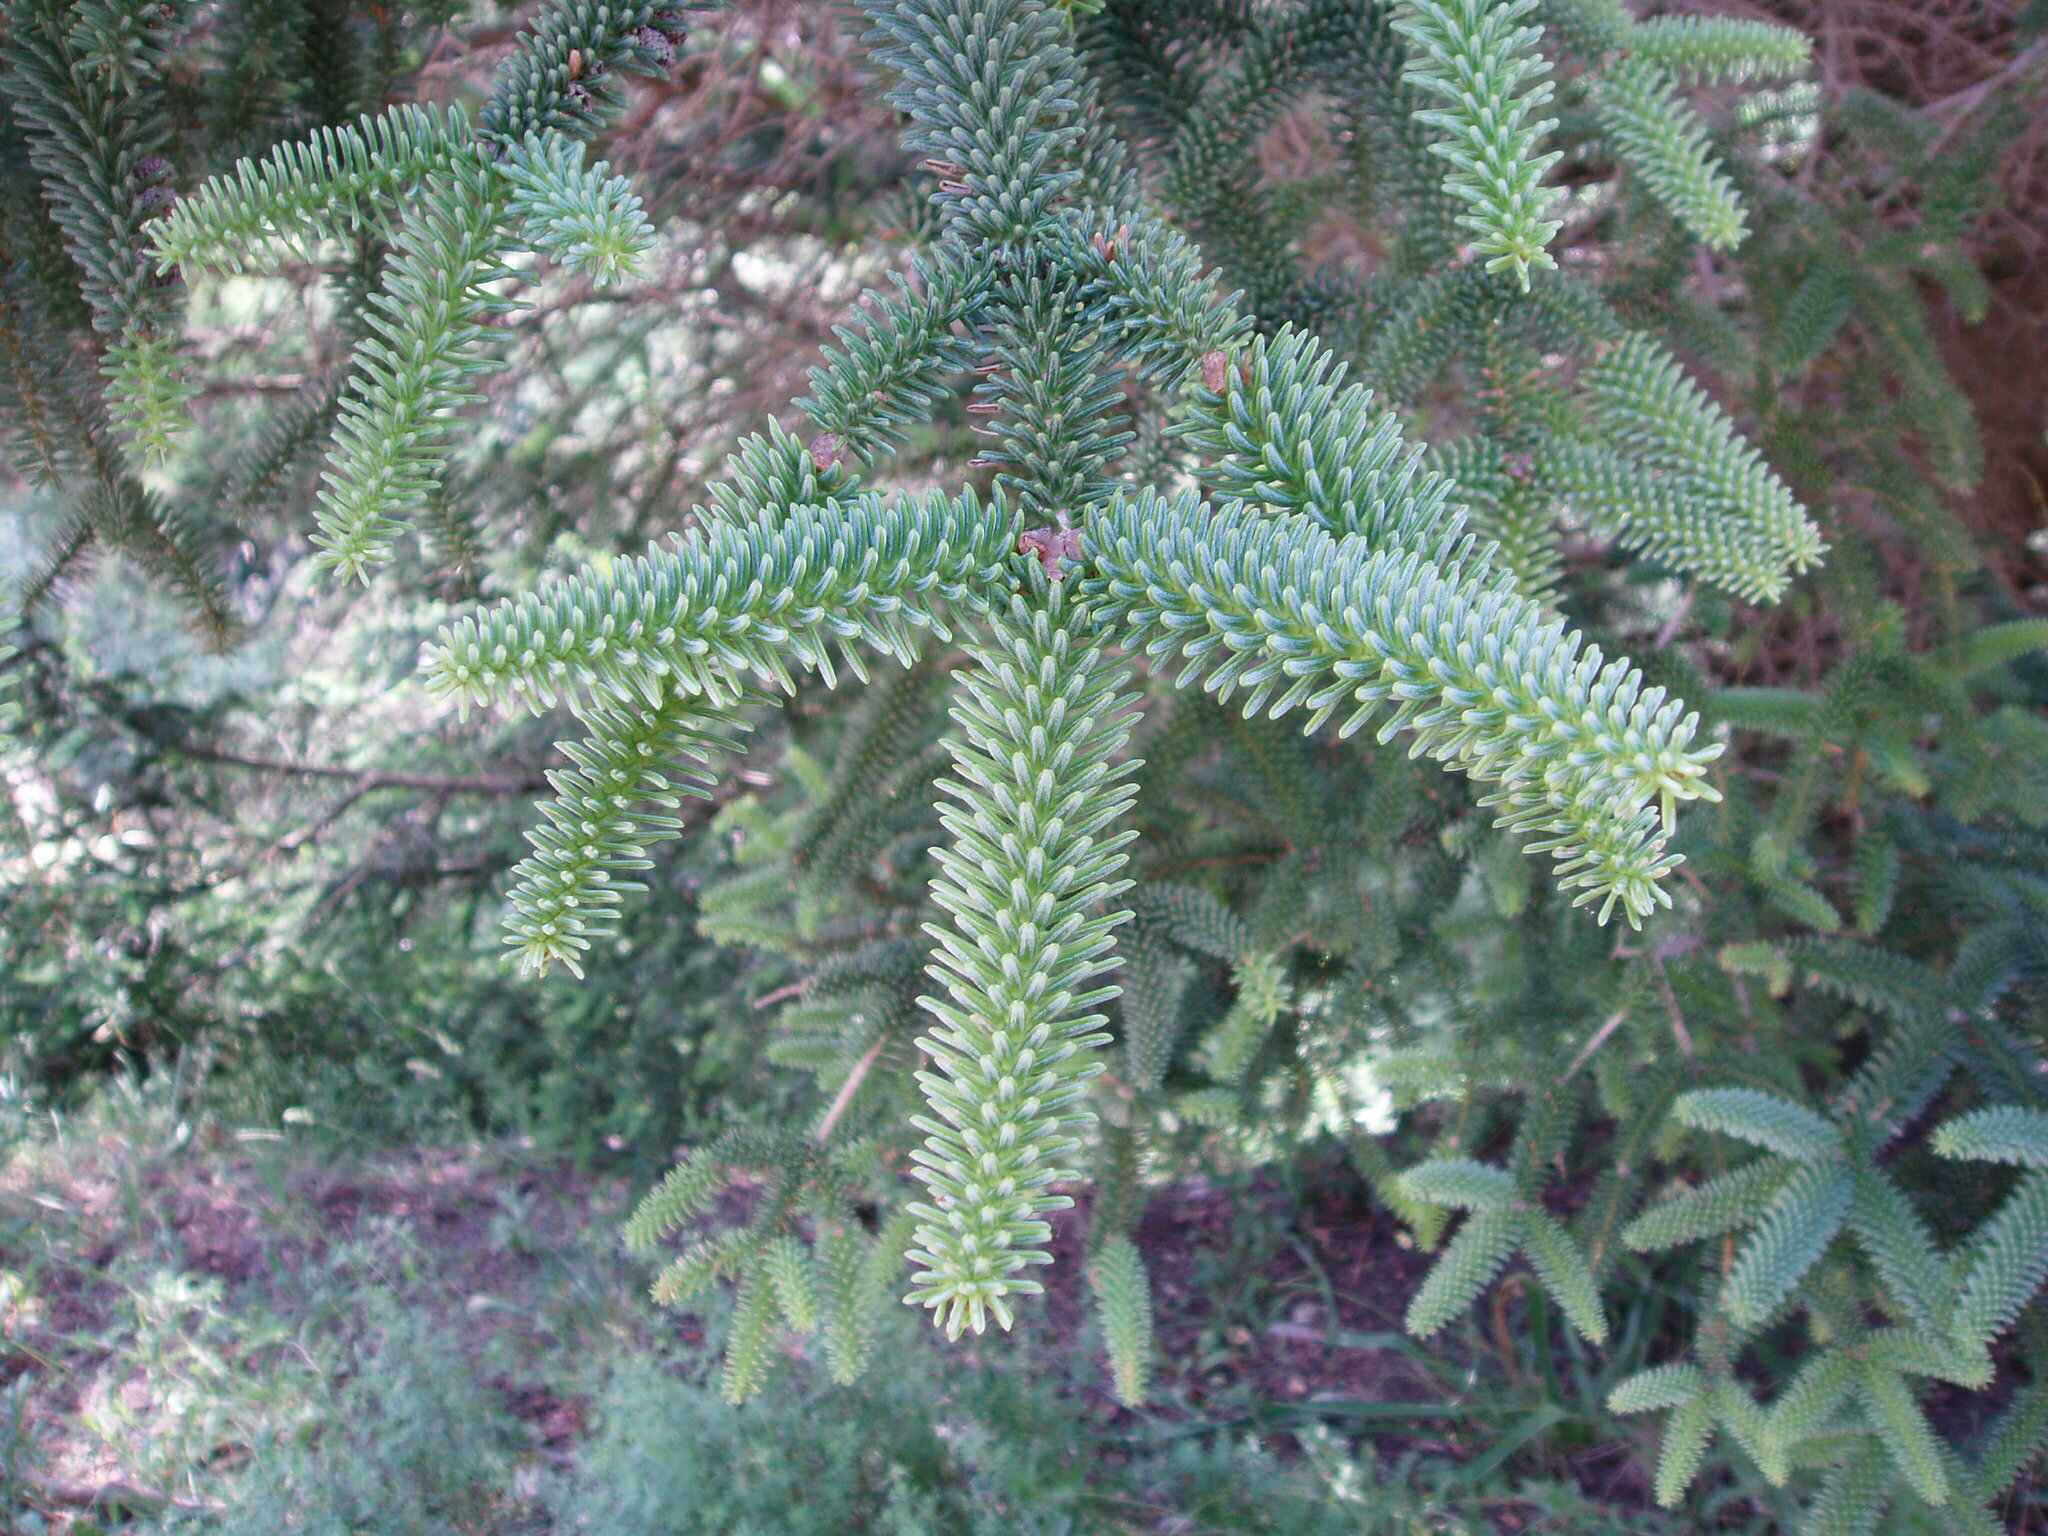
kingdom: Plantae
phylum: Tracheophyta
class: Pinopsida
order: Pinales
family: Pinaceae
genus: Abies
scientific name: Abies pinsapo
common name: Spanish fir
